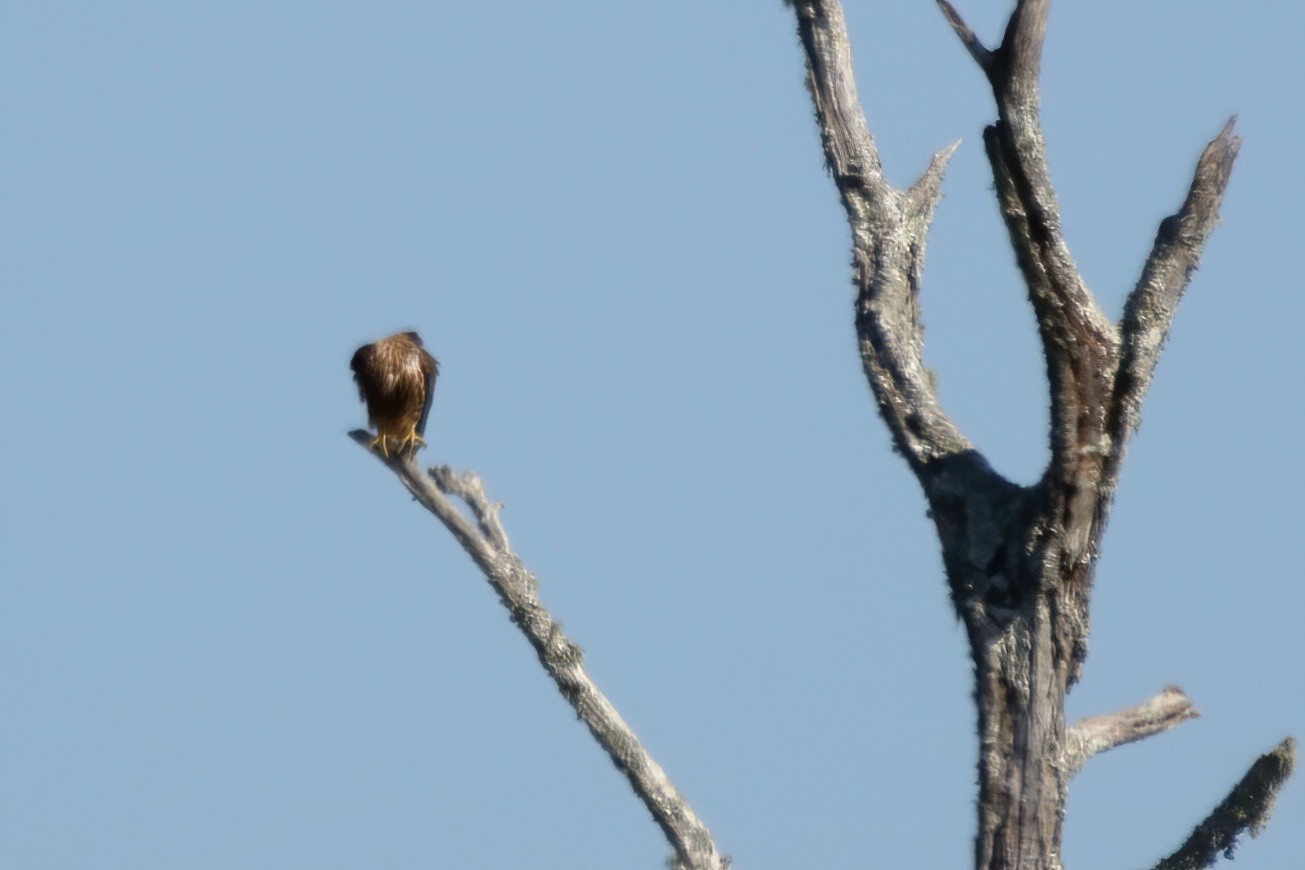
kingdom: Animalia
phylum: Chordata
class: Aves
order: Falconiformes
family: Falconidae
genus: Falco
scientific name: Falco columbarius
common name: Merlin
